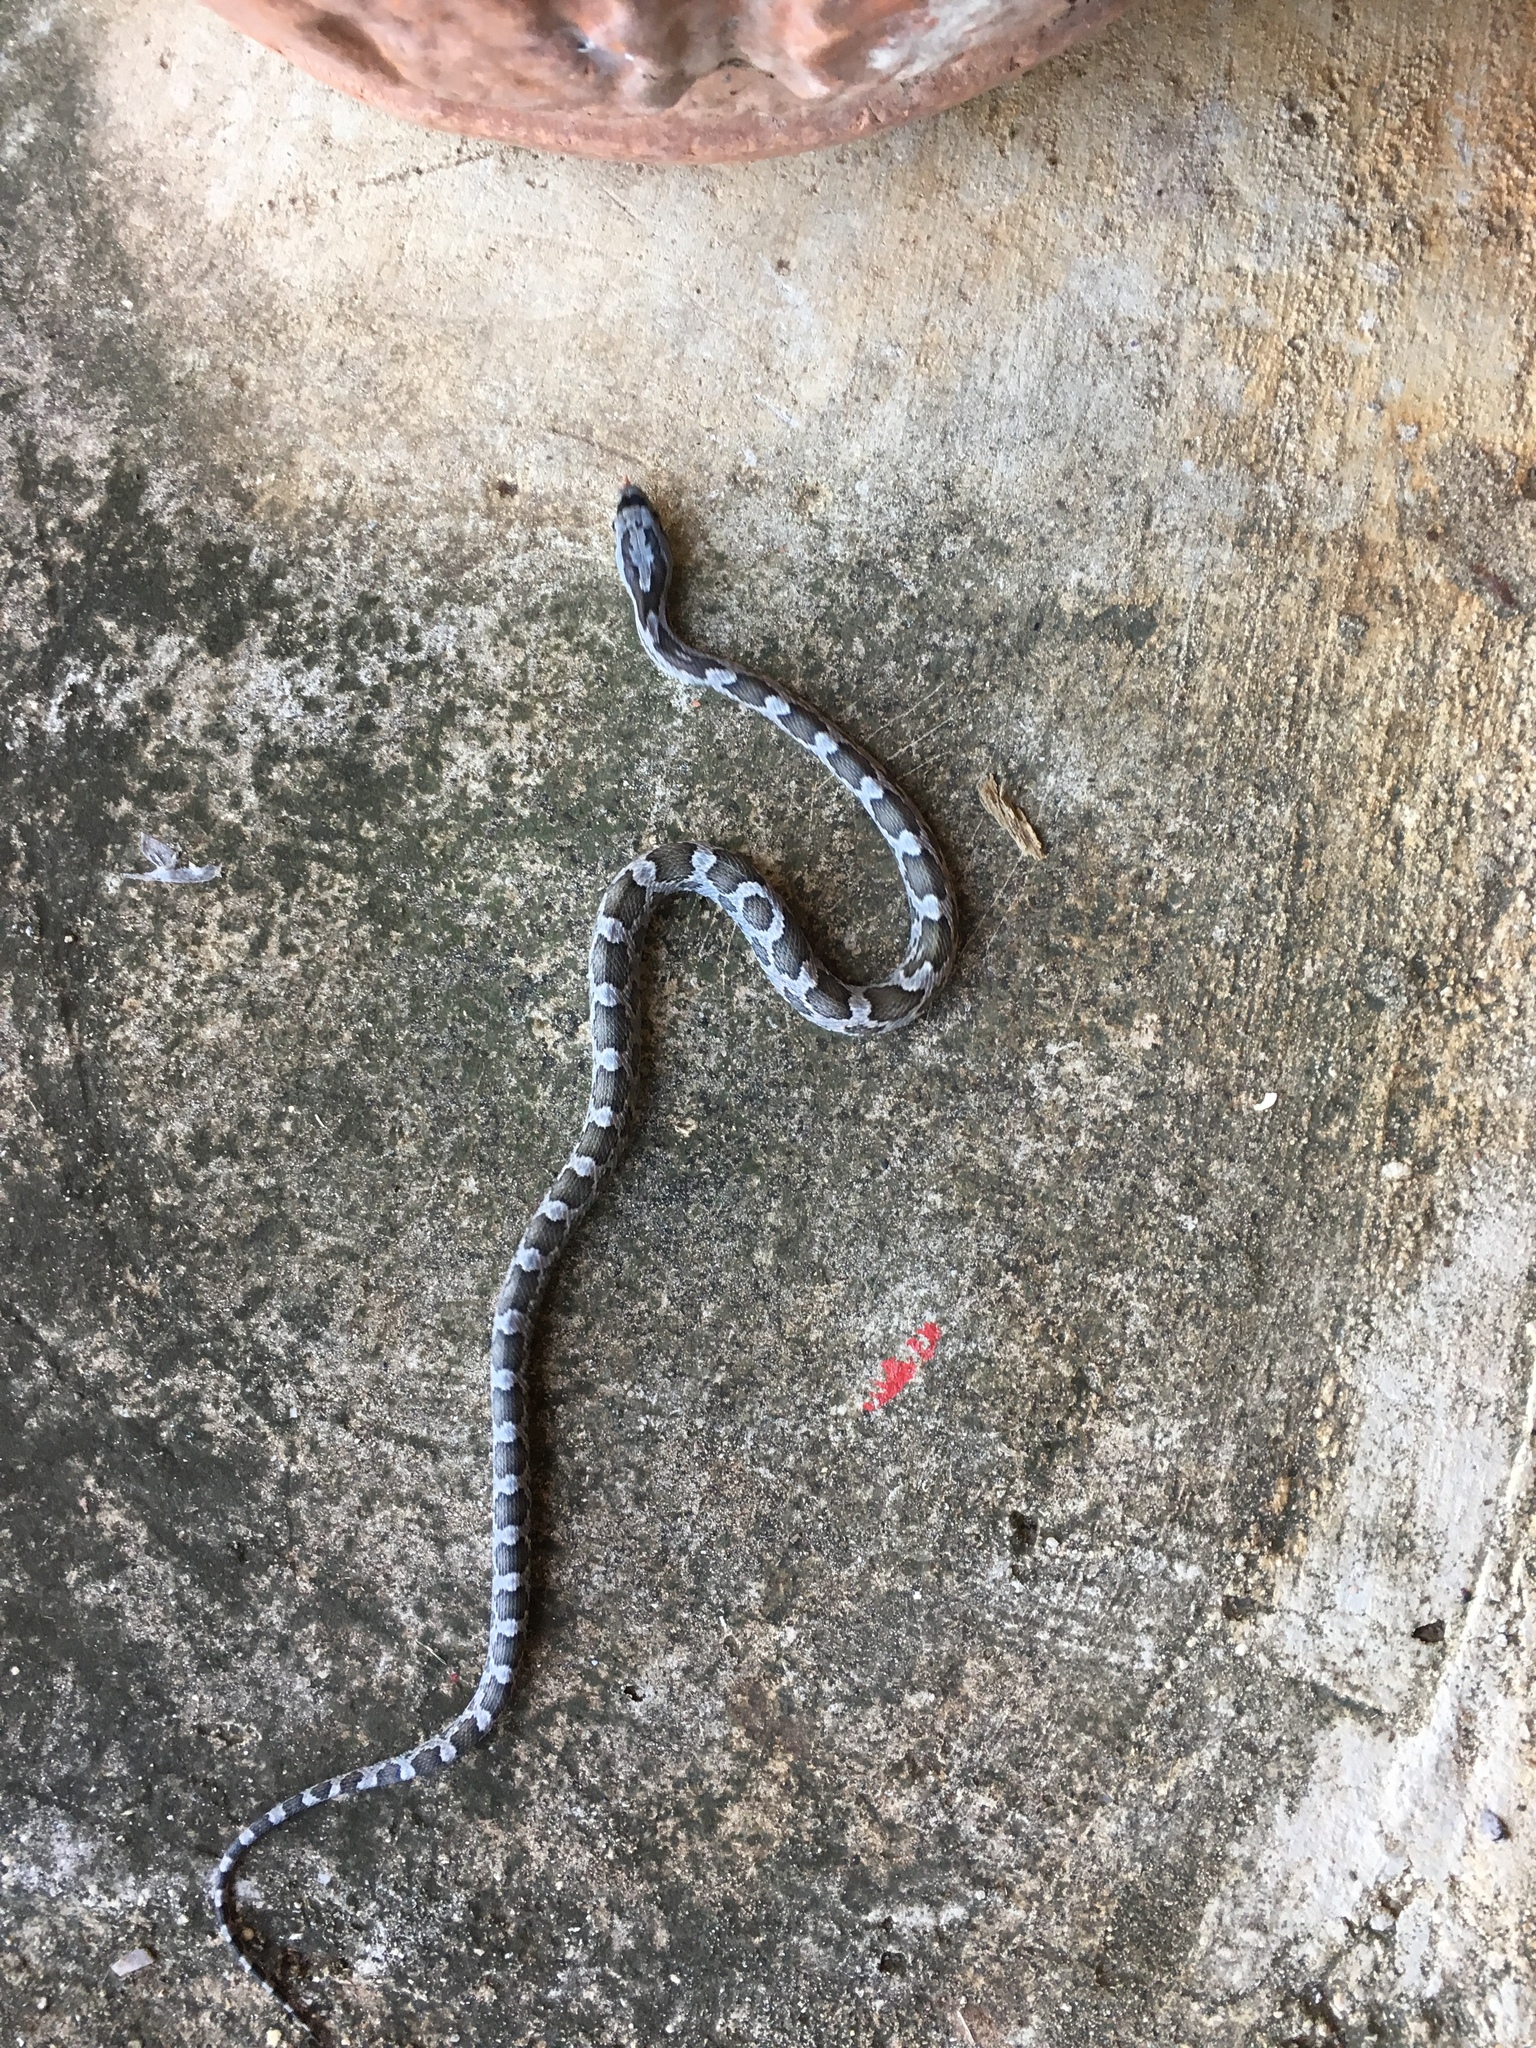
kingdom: Animalia
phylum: Chordata
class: Squamata
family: Colubridae
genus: Pantherophis
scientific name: Pantherophis obsoletus
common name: Black rat snake
